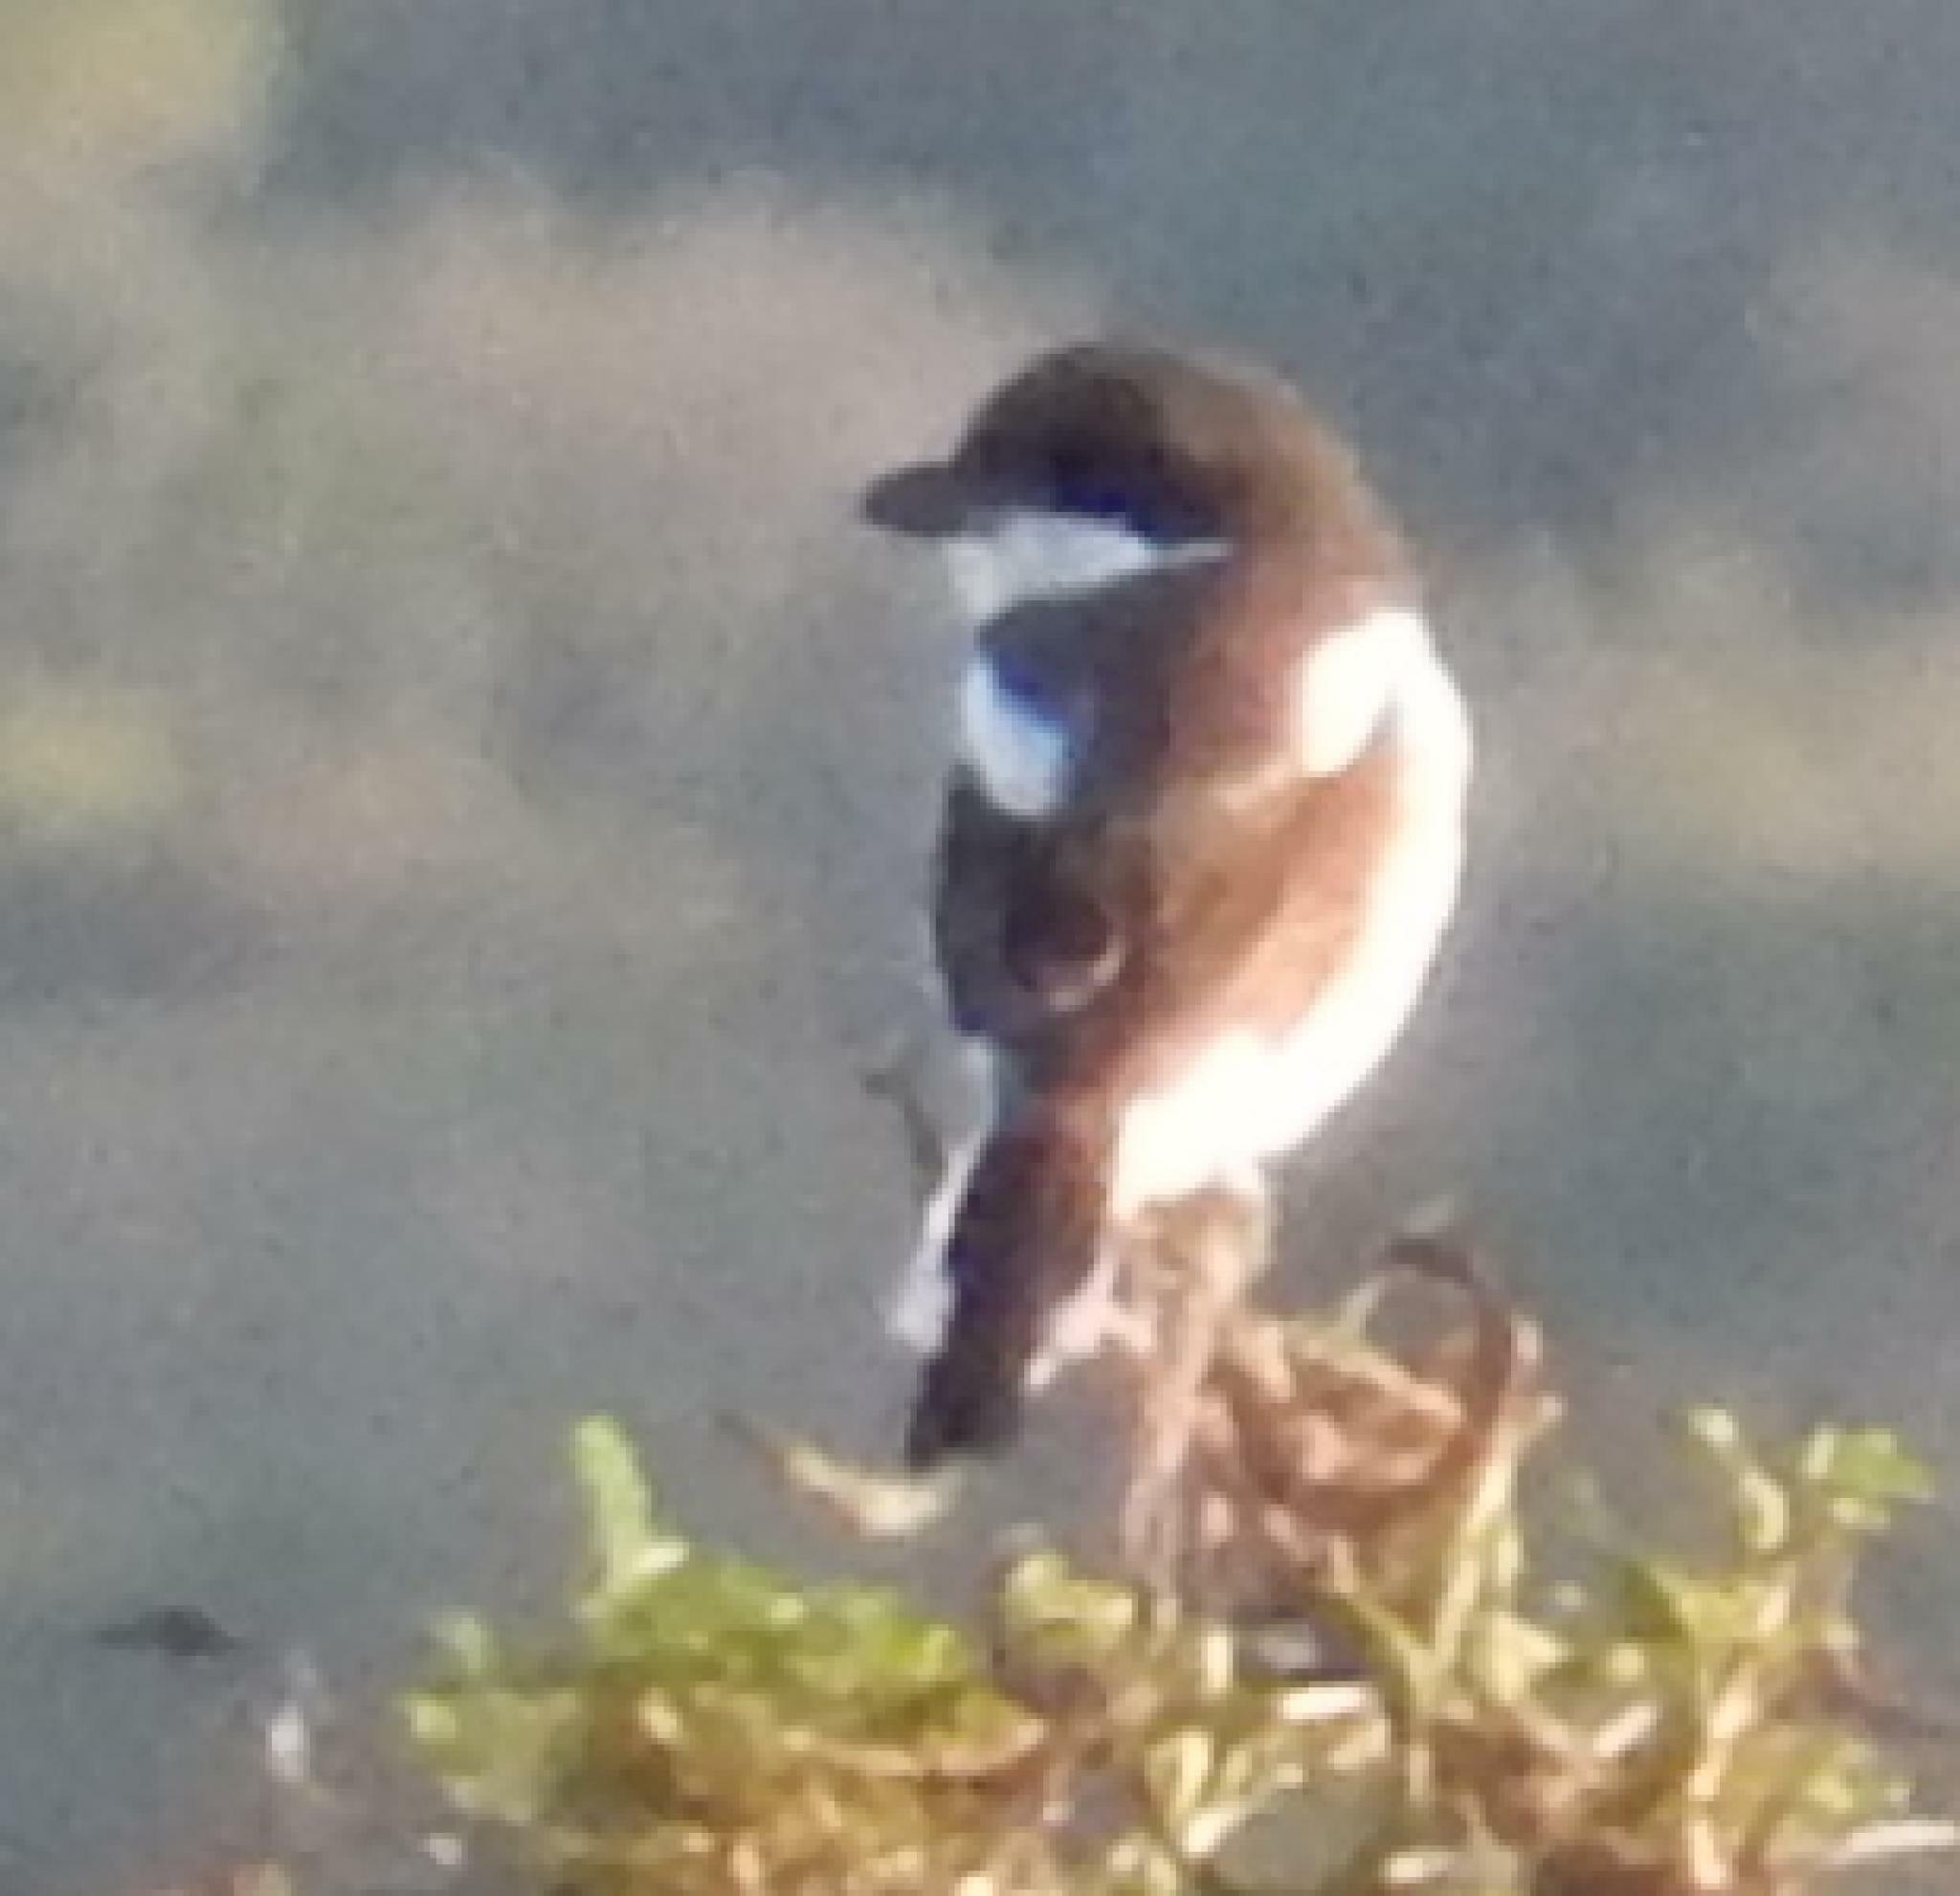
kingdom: Animalia
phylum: Chordata
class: Aves
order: Passeriformes
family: Laniidae
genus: Lanius
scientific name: Lanius collaris
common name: Southern fiscal
